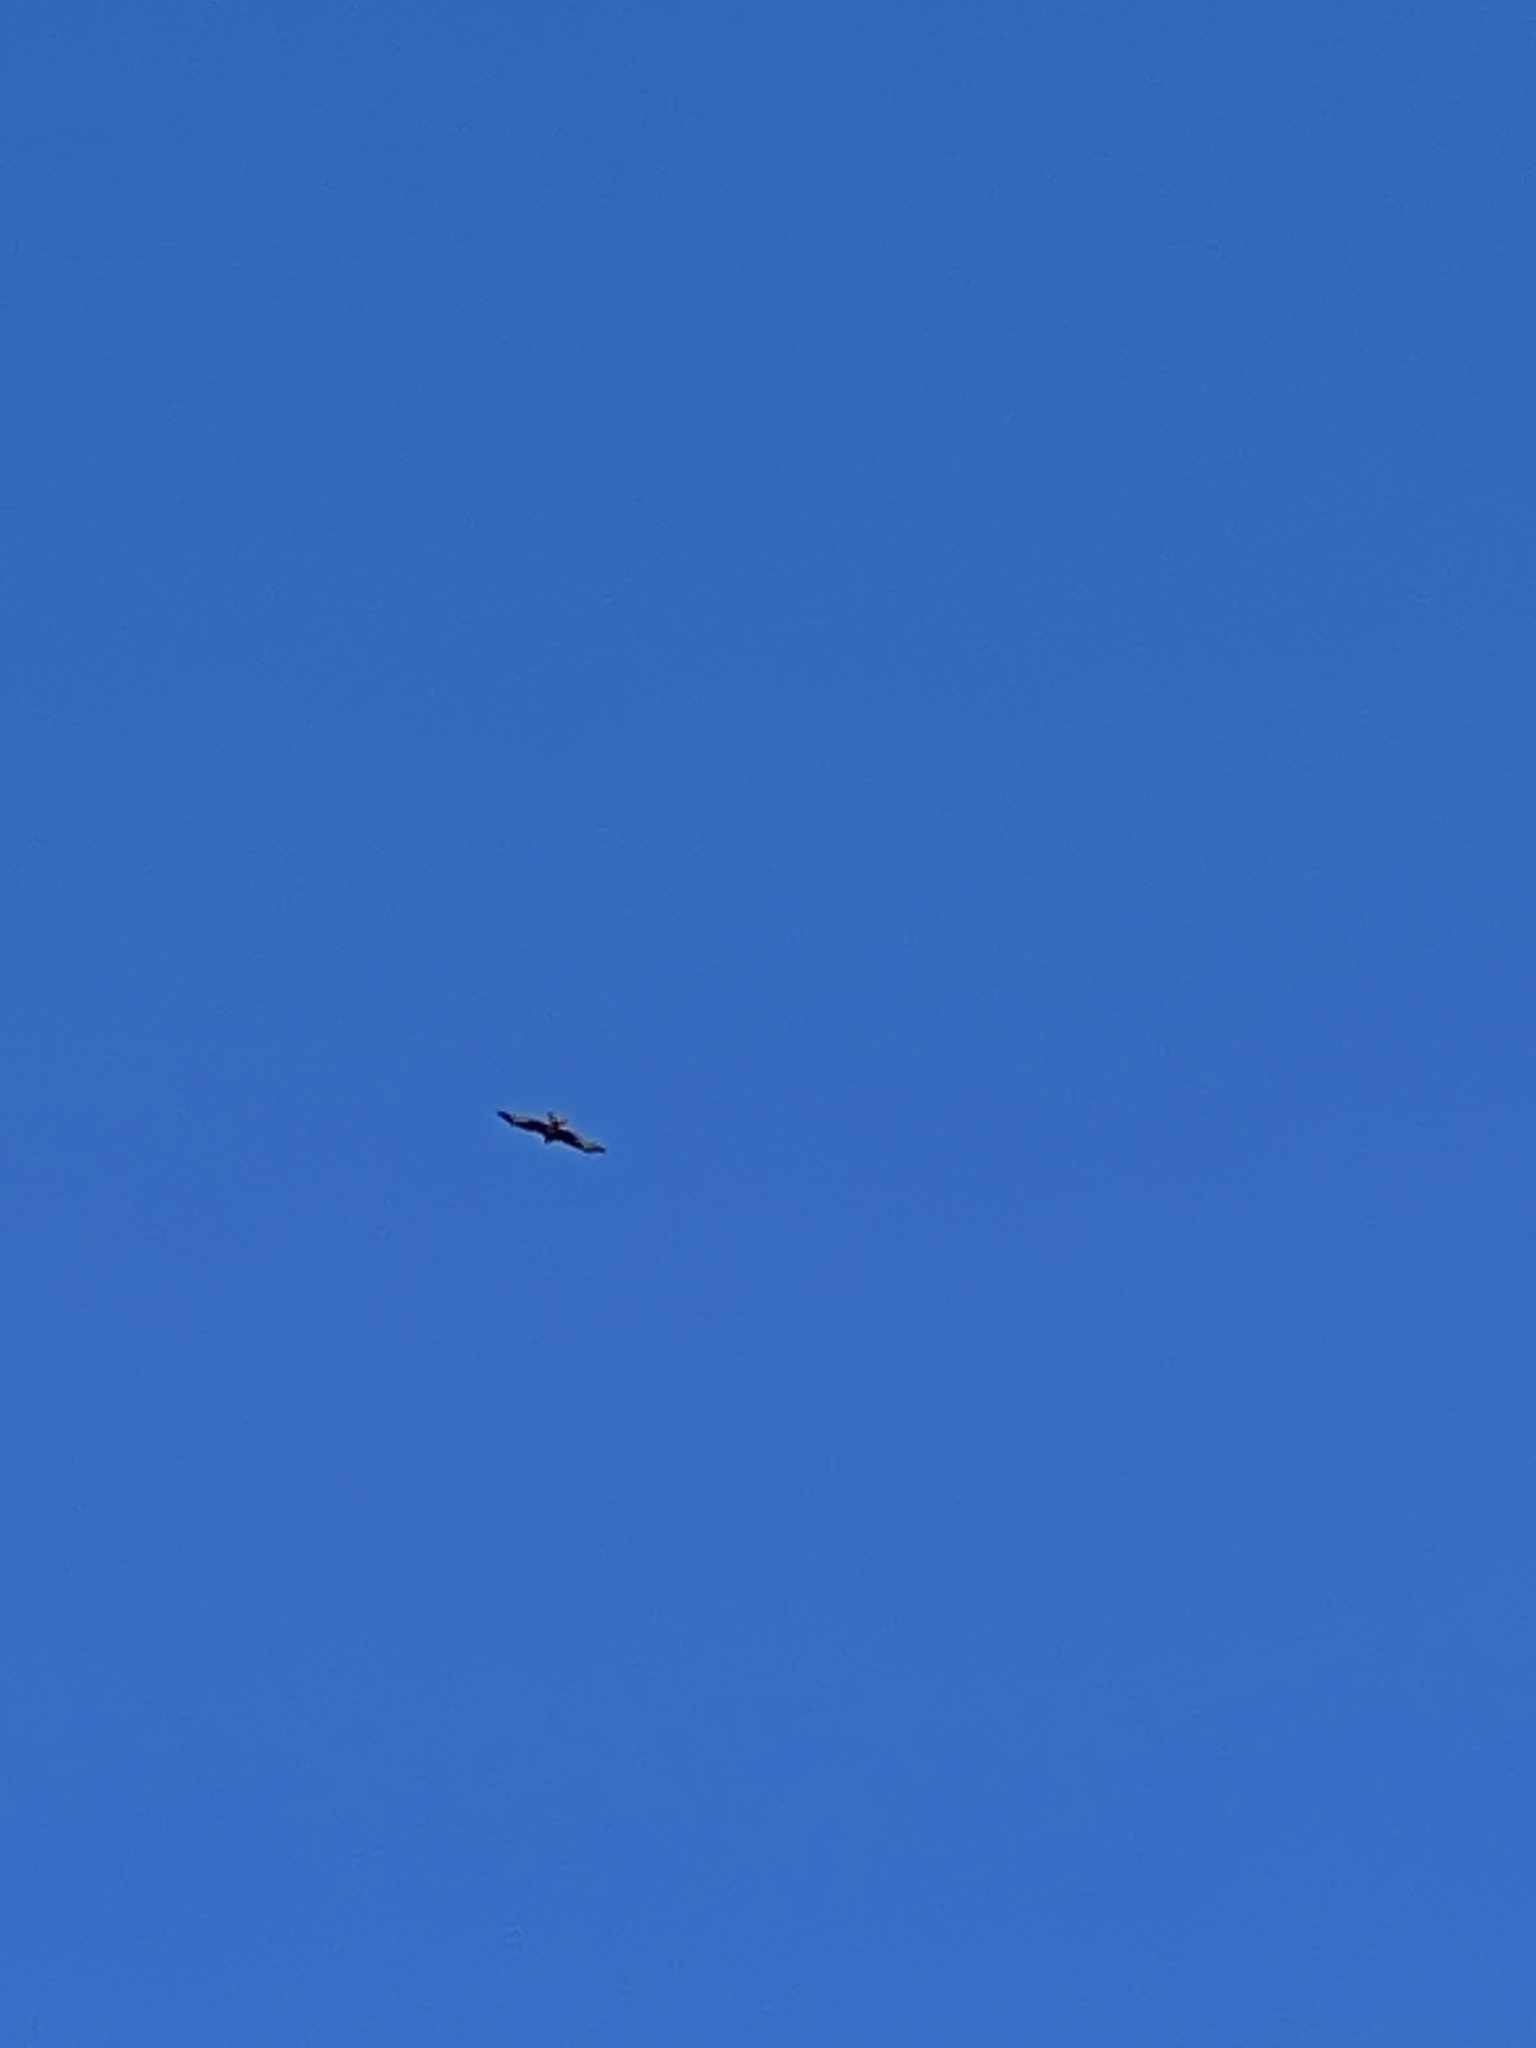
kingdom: Animalia
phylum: Chordata
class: Aves
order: Accipitriformes
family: Accipitridae
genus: Milvus
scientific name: Milvus milvus
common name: Red kite
